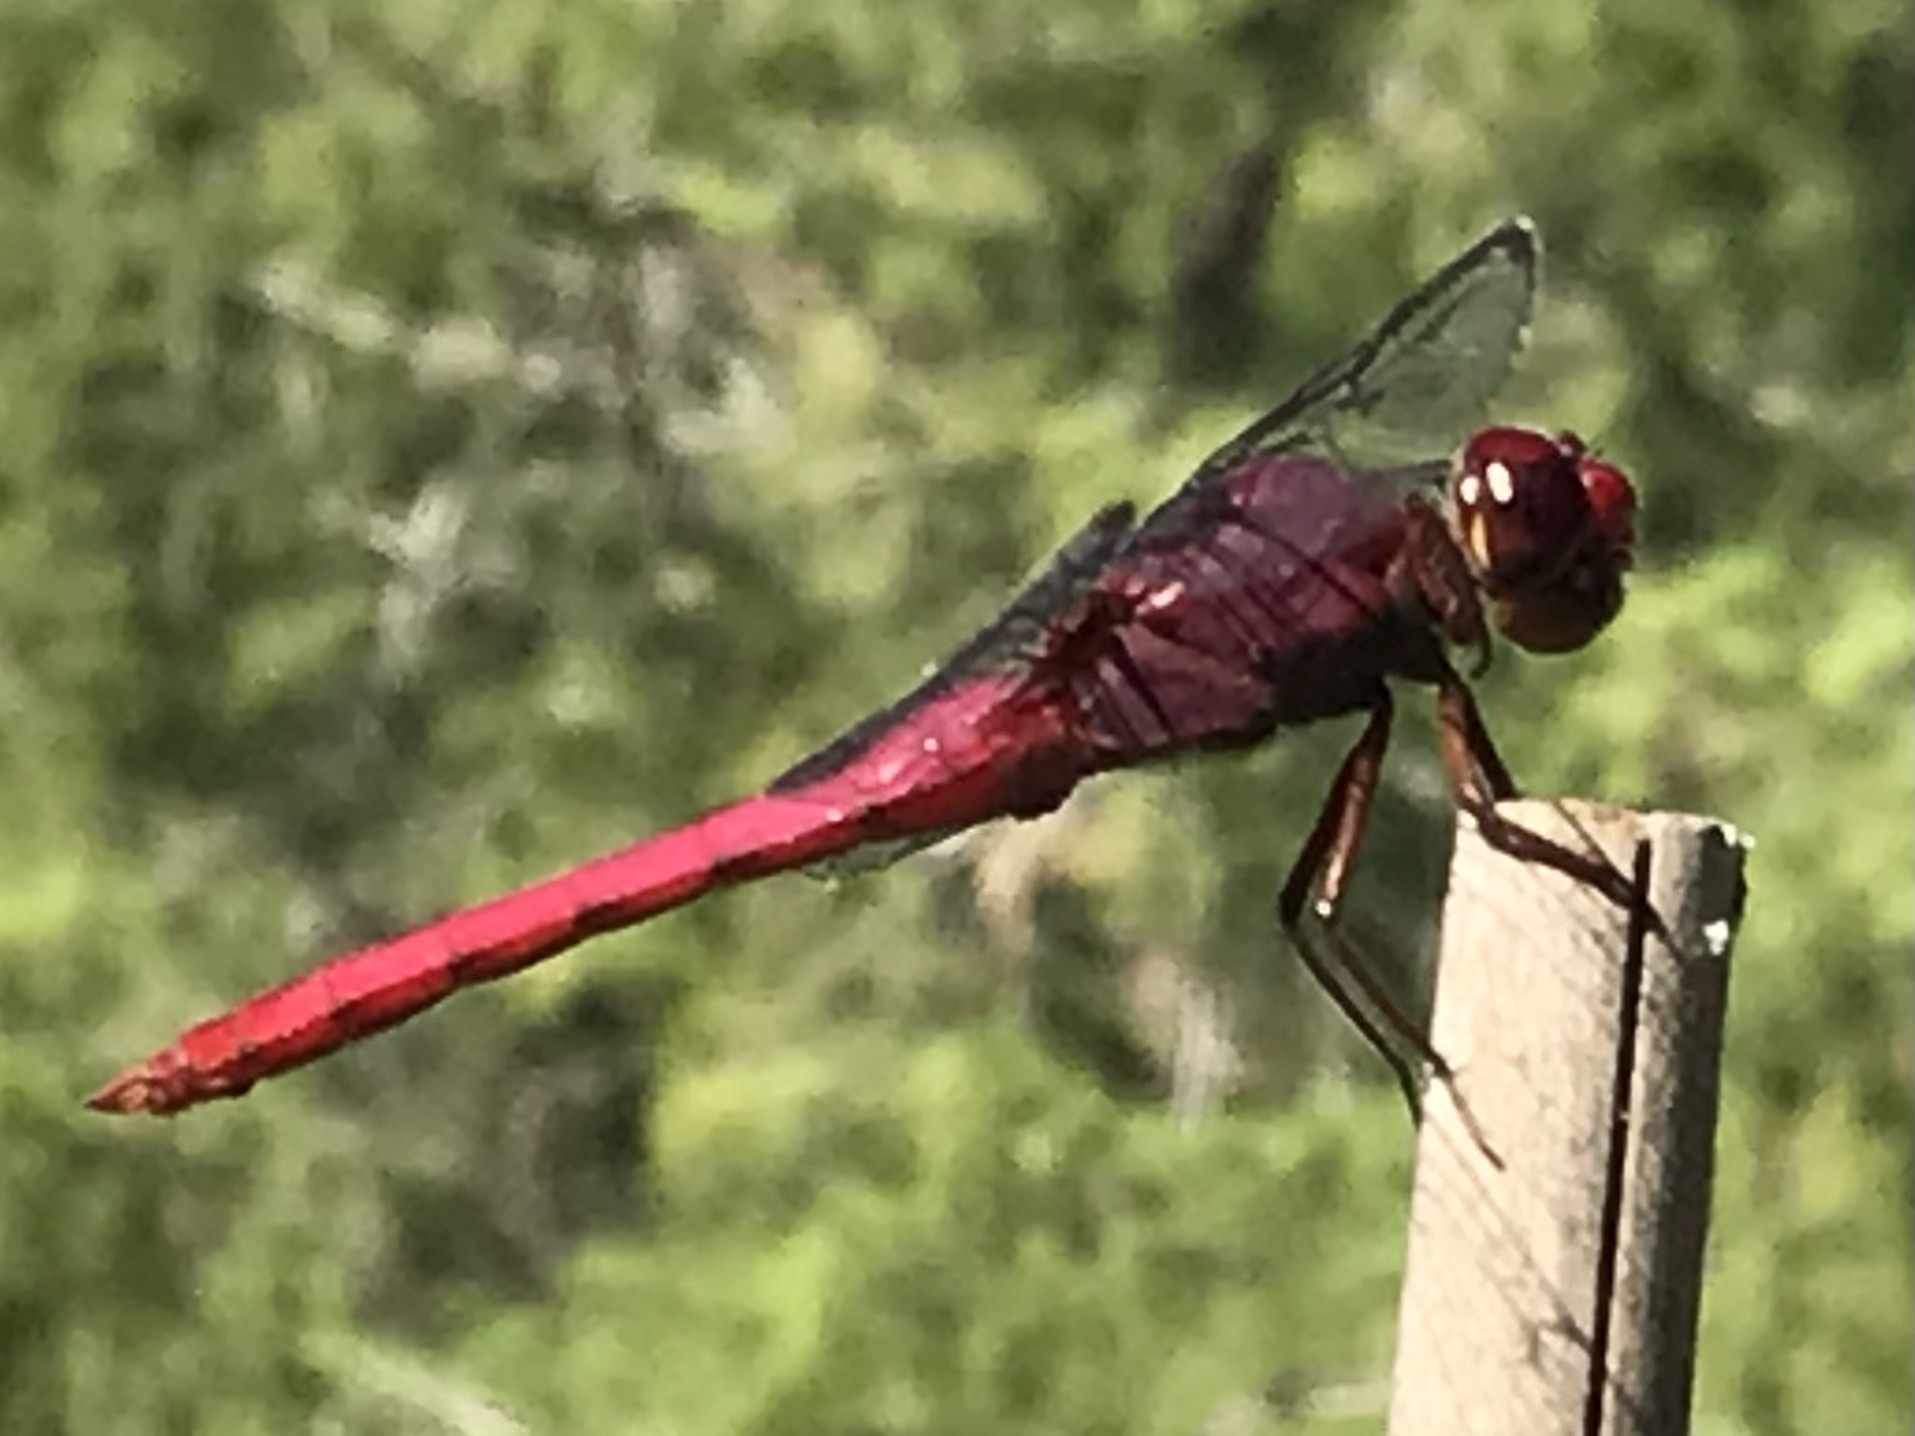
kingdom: Animalia
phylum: Arthropoda
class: Insecta
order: Odonata
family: Libellulidae
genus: Orthemis
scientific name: Orthemis discolor
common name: Carmine skimmer
